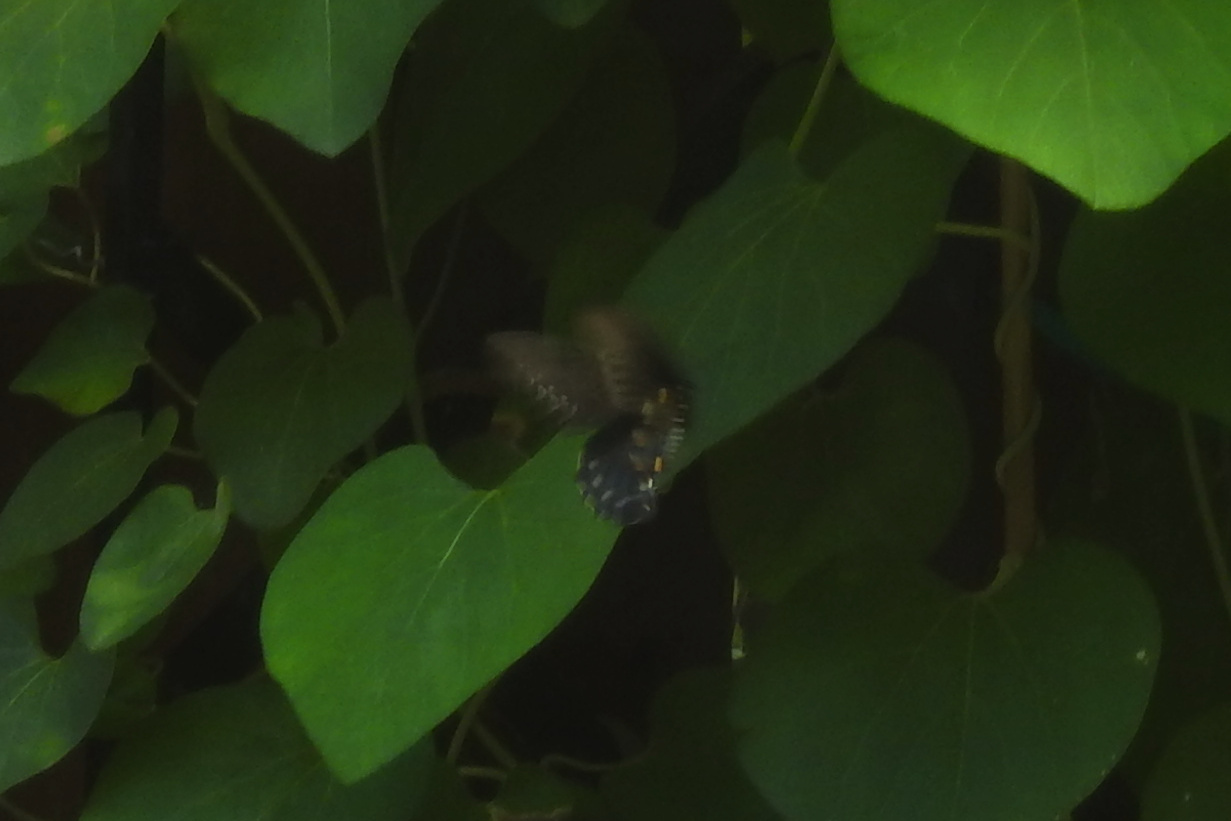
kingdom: Animalia
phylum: Arthropoda
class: Insecta
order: Lepidoptera
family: Papilionidae
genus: Battus
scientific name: Battus philenor
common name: Pipevine swallowtail
